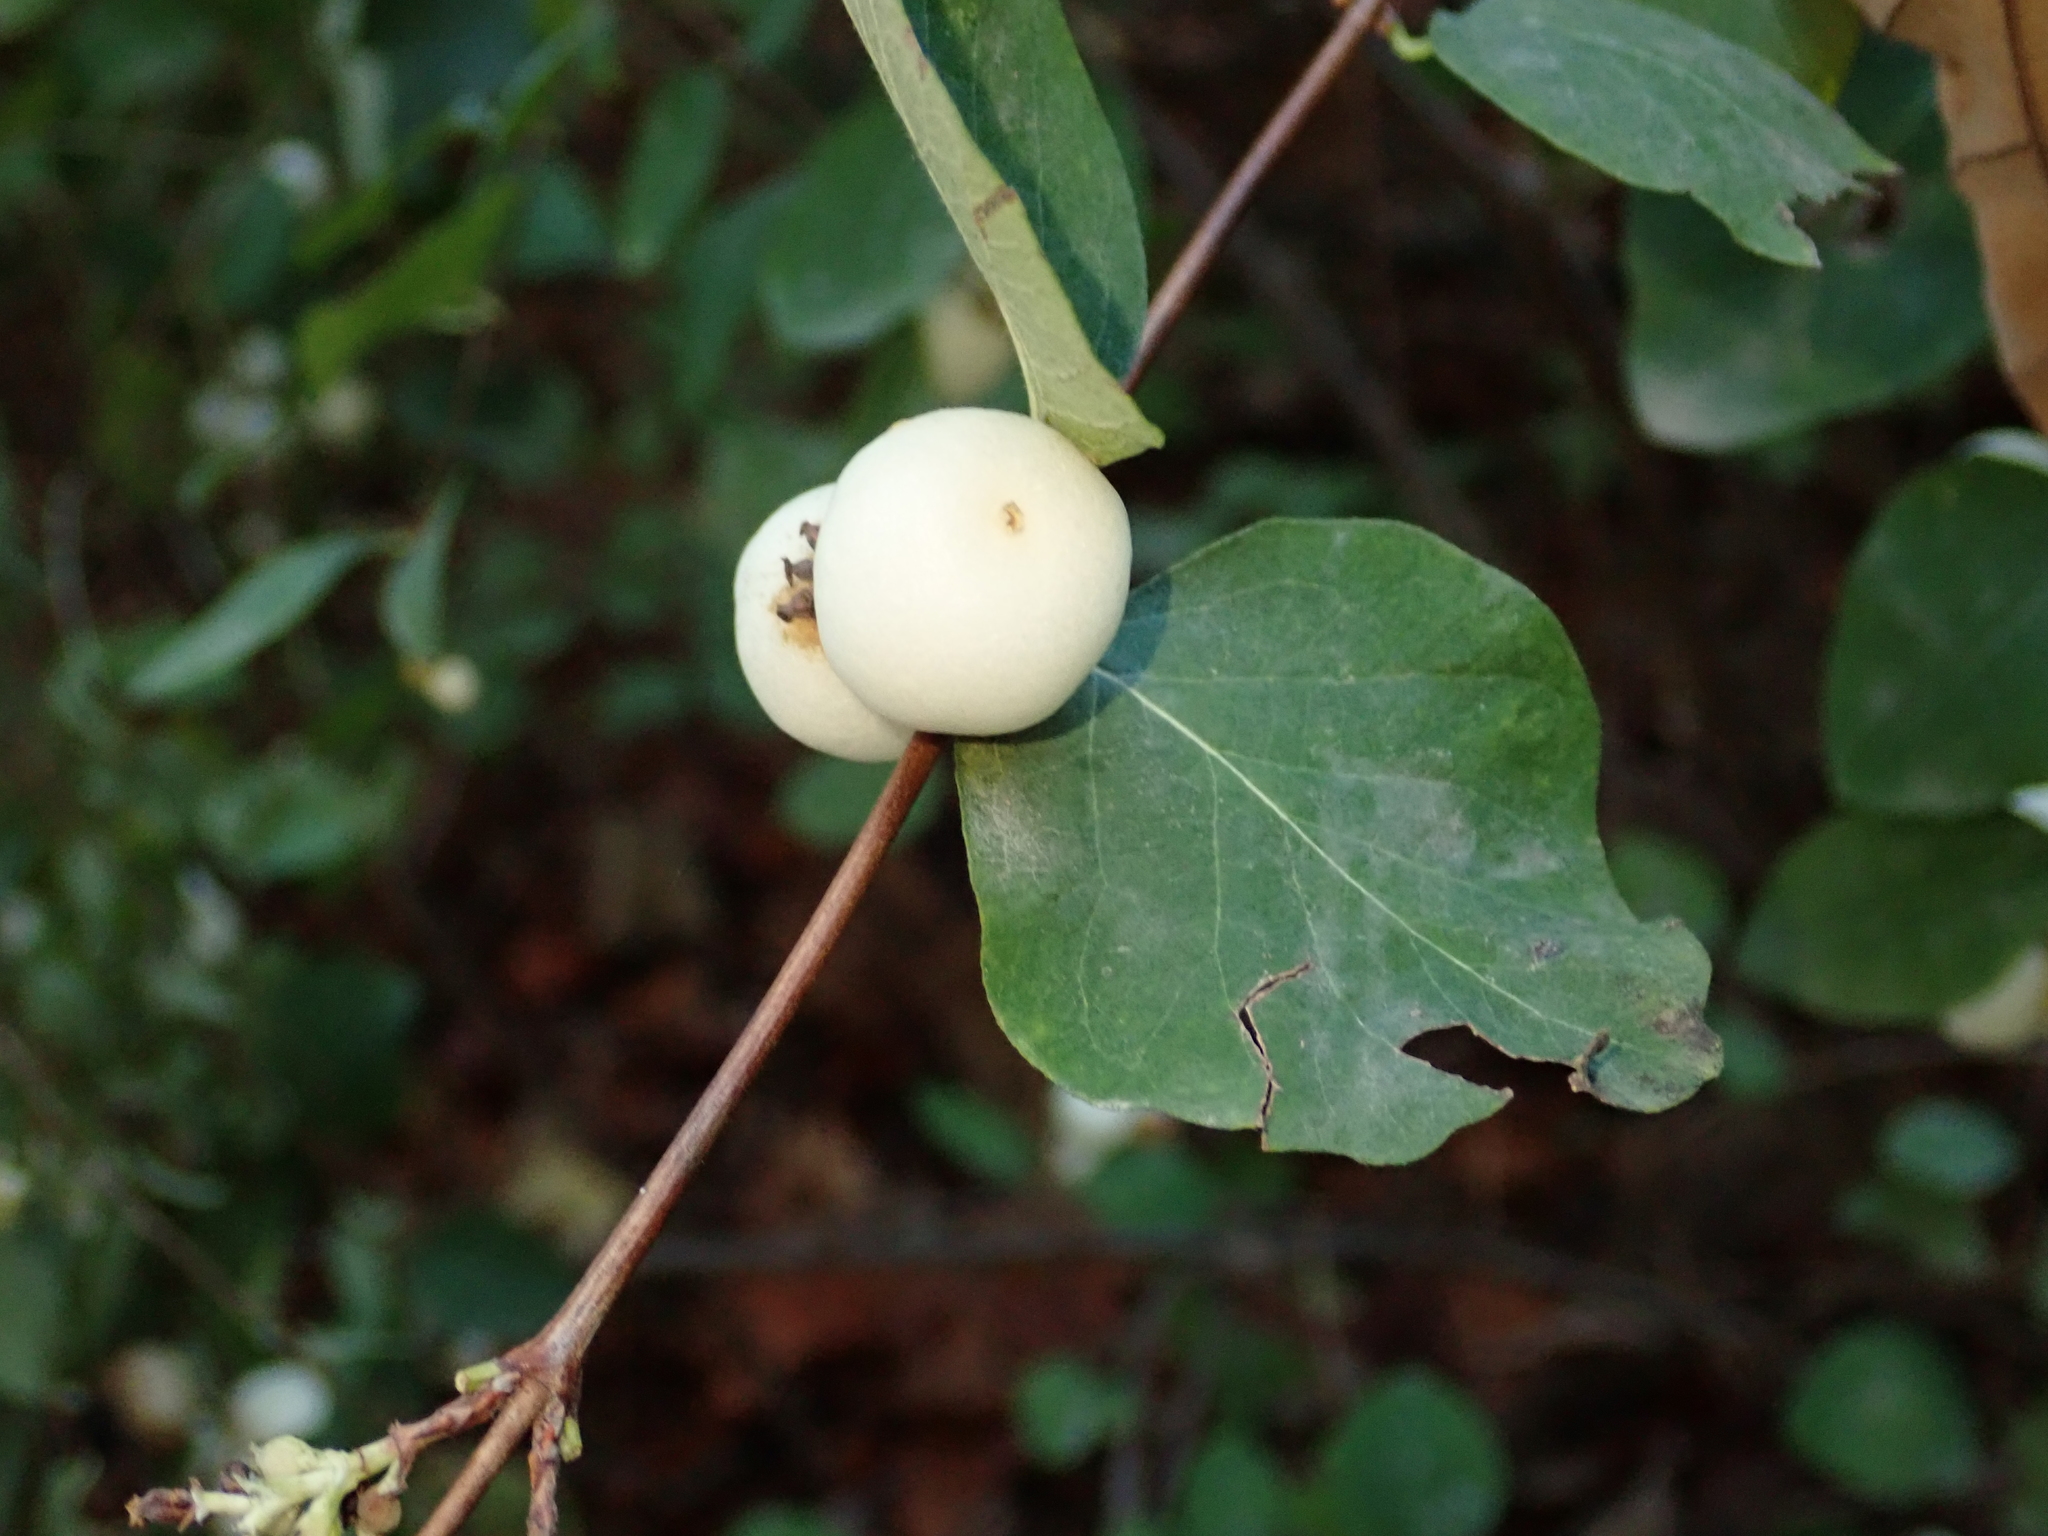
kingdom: Plantae
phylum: Tracheophyta
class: Magnoliopsida
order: Dipsacales
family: Caprifoliaceae
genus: Symphoricarpos
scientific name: Symphoricarpos albus
